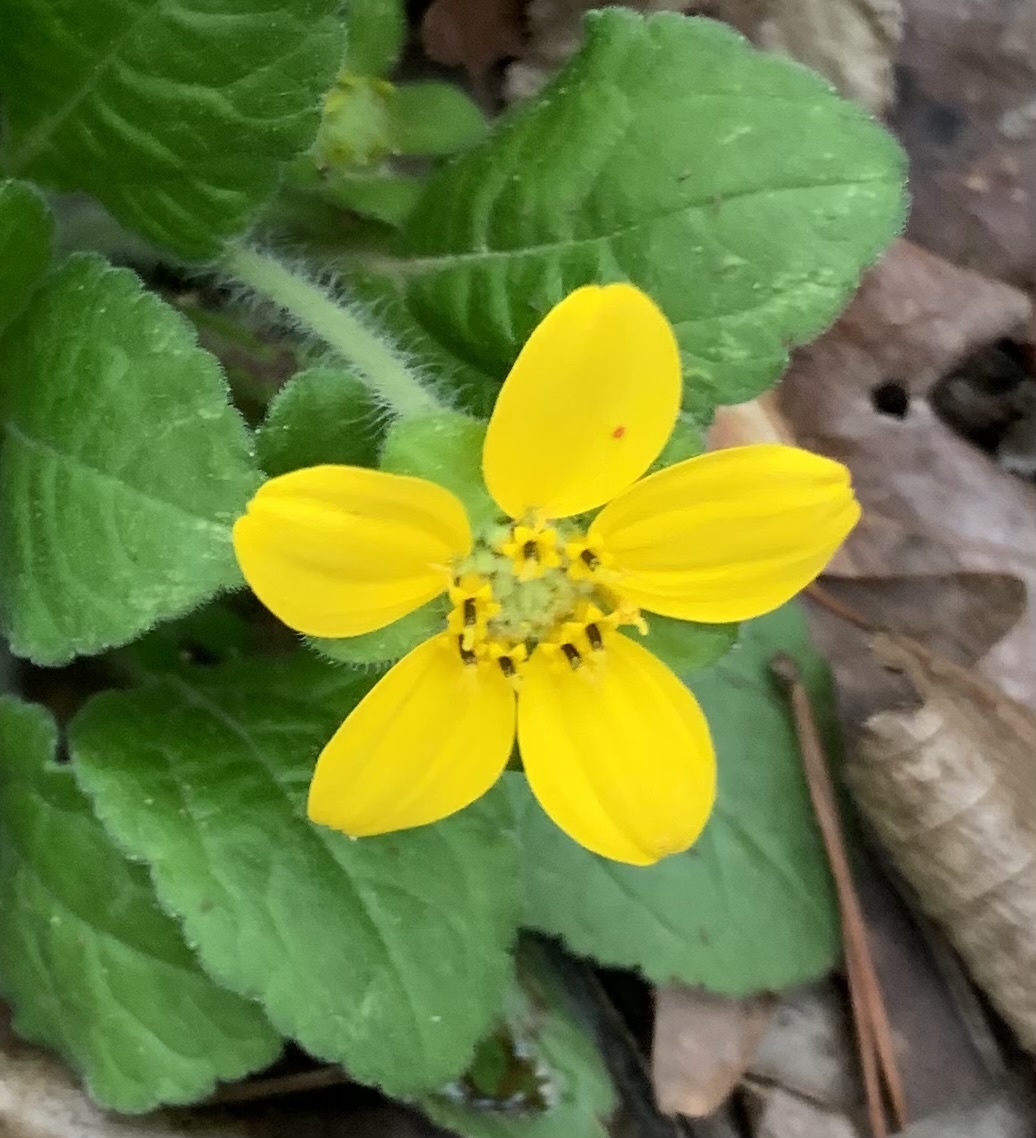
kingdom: Plantae
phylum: Tracheophyta
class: Magnoliopsida
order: Asterales
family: Asteraceae
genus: Chrysogonum
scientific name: Chrysogonum virginianum
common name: Golden-knee
